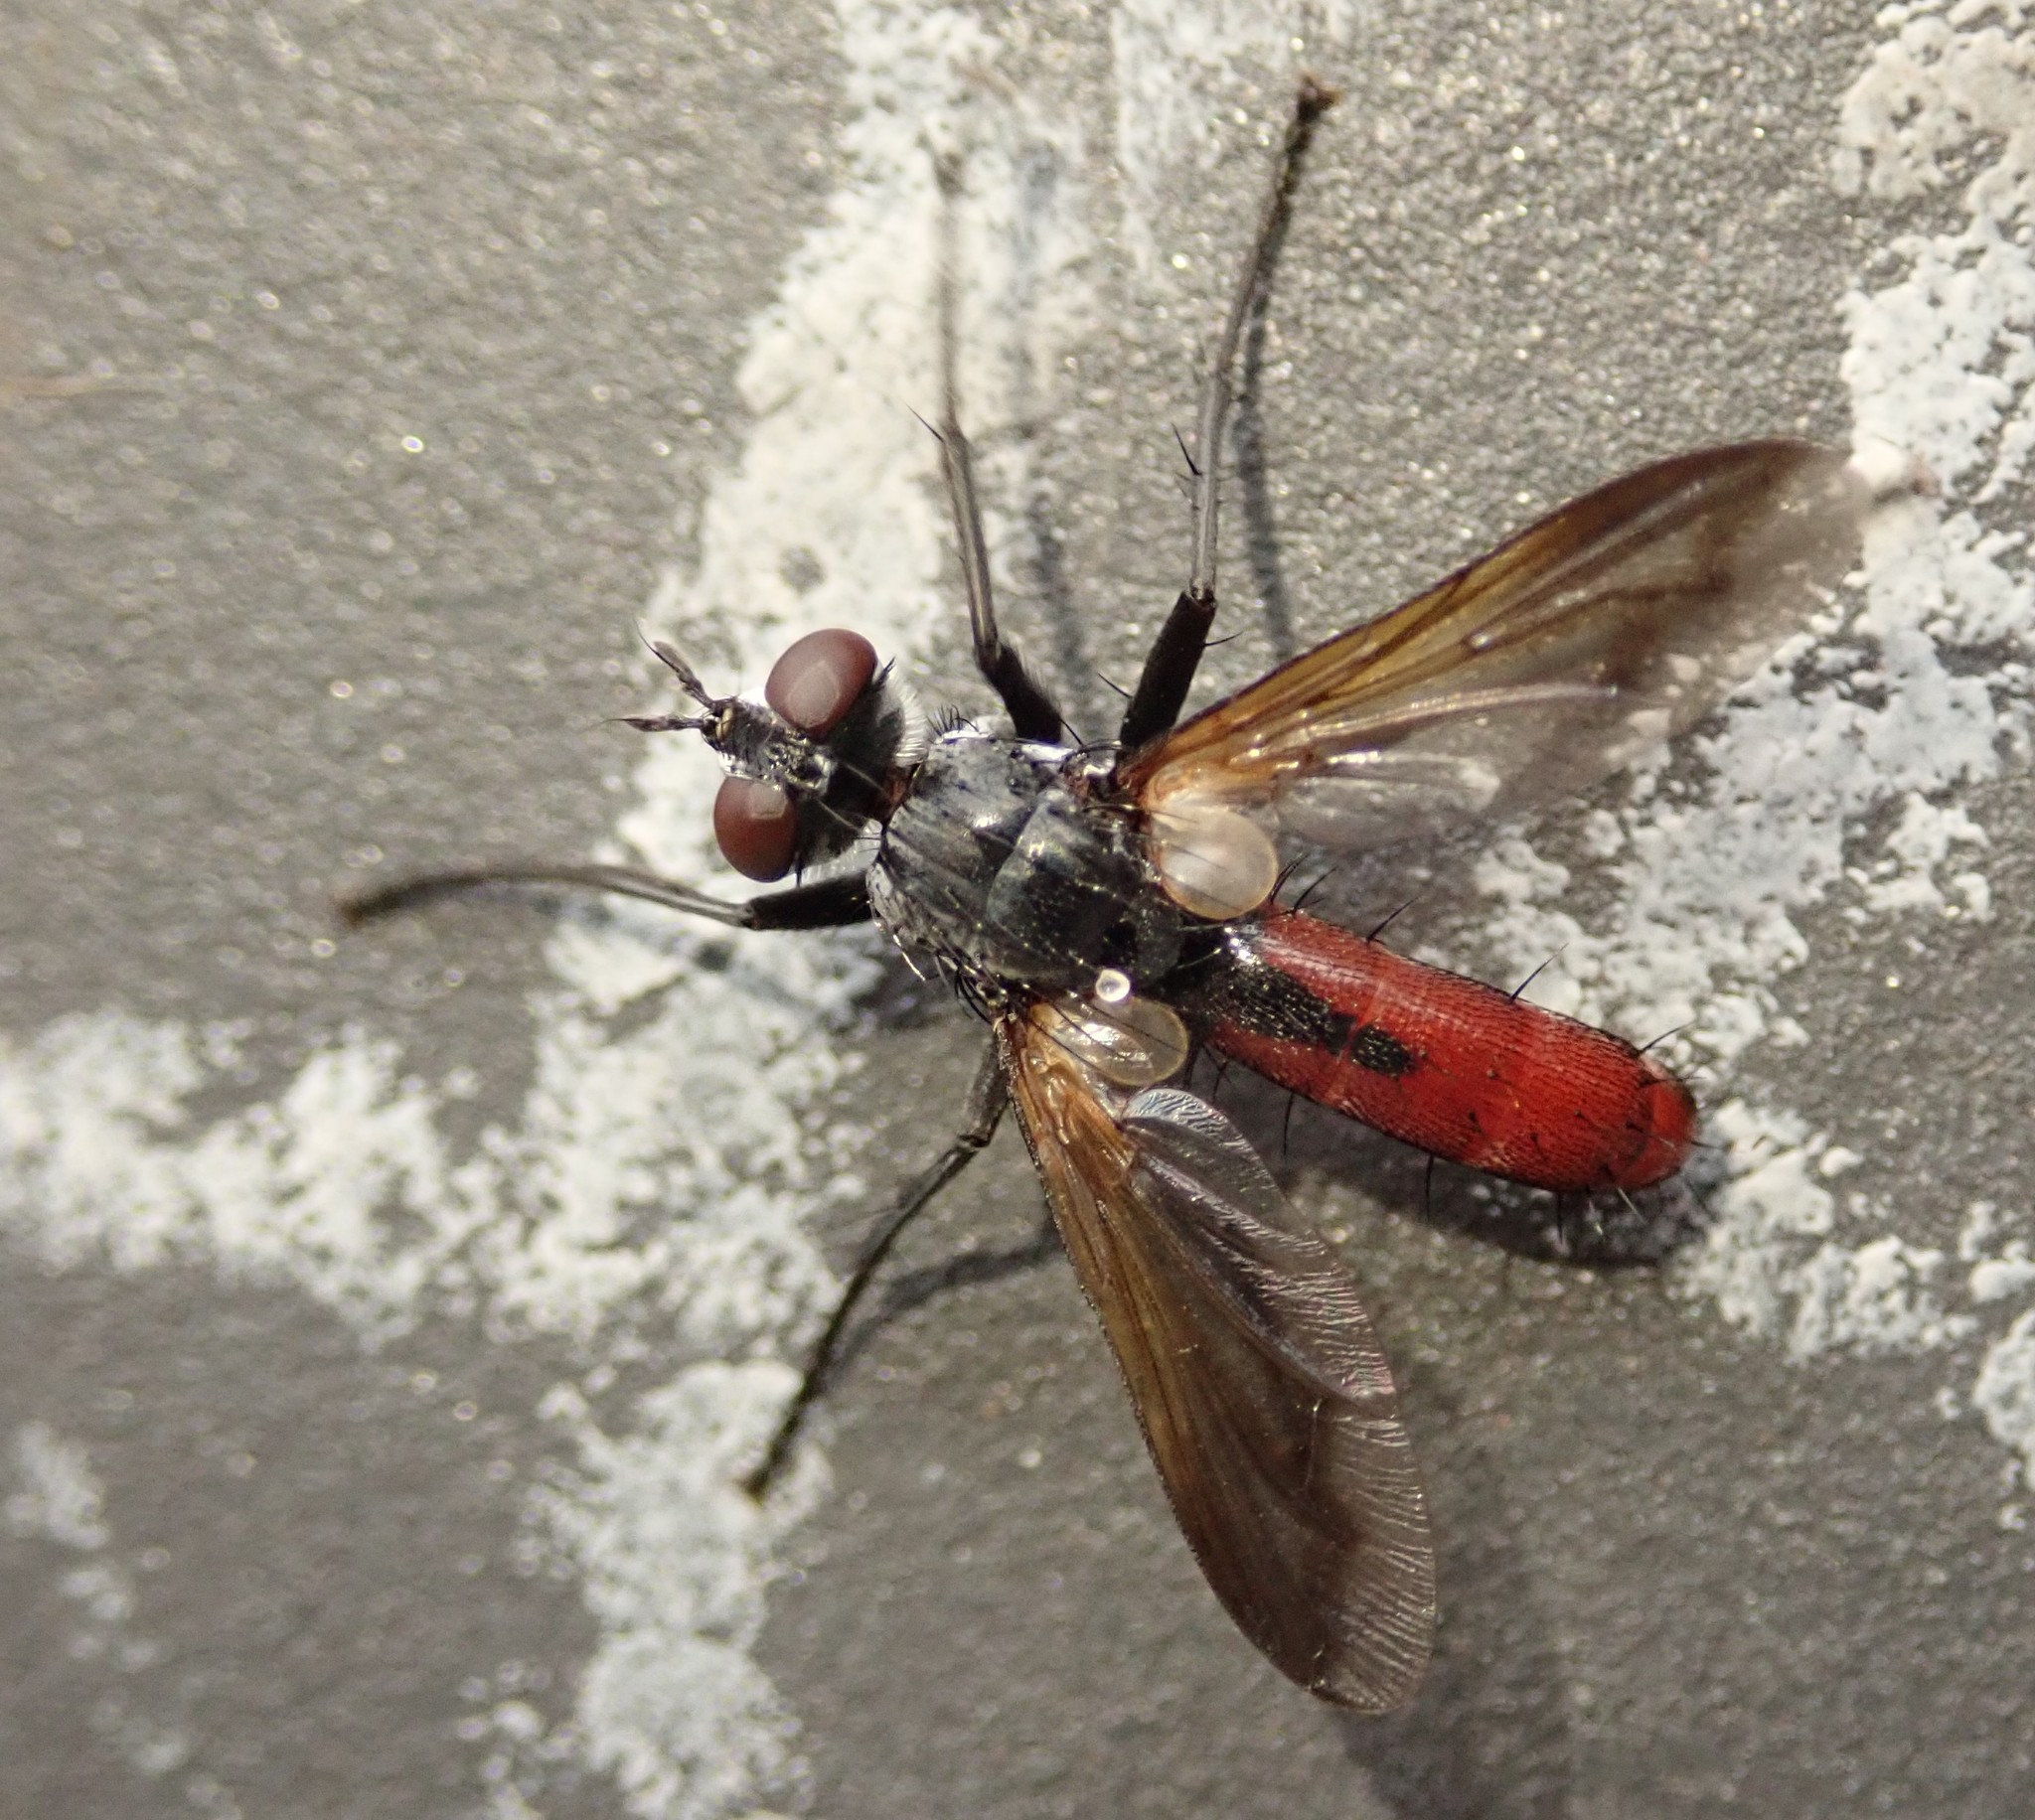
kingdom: Animalia
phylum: Arthropoda
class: Insecta
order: Diptera
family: Tachinidae
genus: Cylindromyia
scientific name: Cylindromyia bicolor
